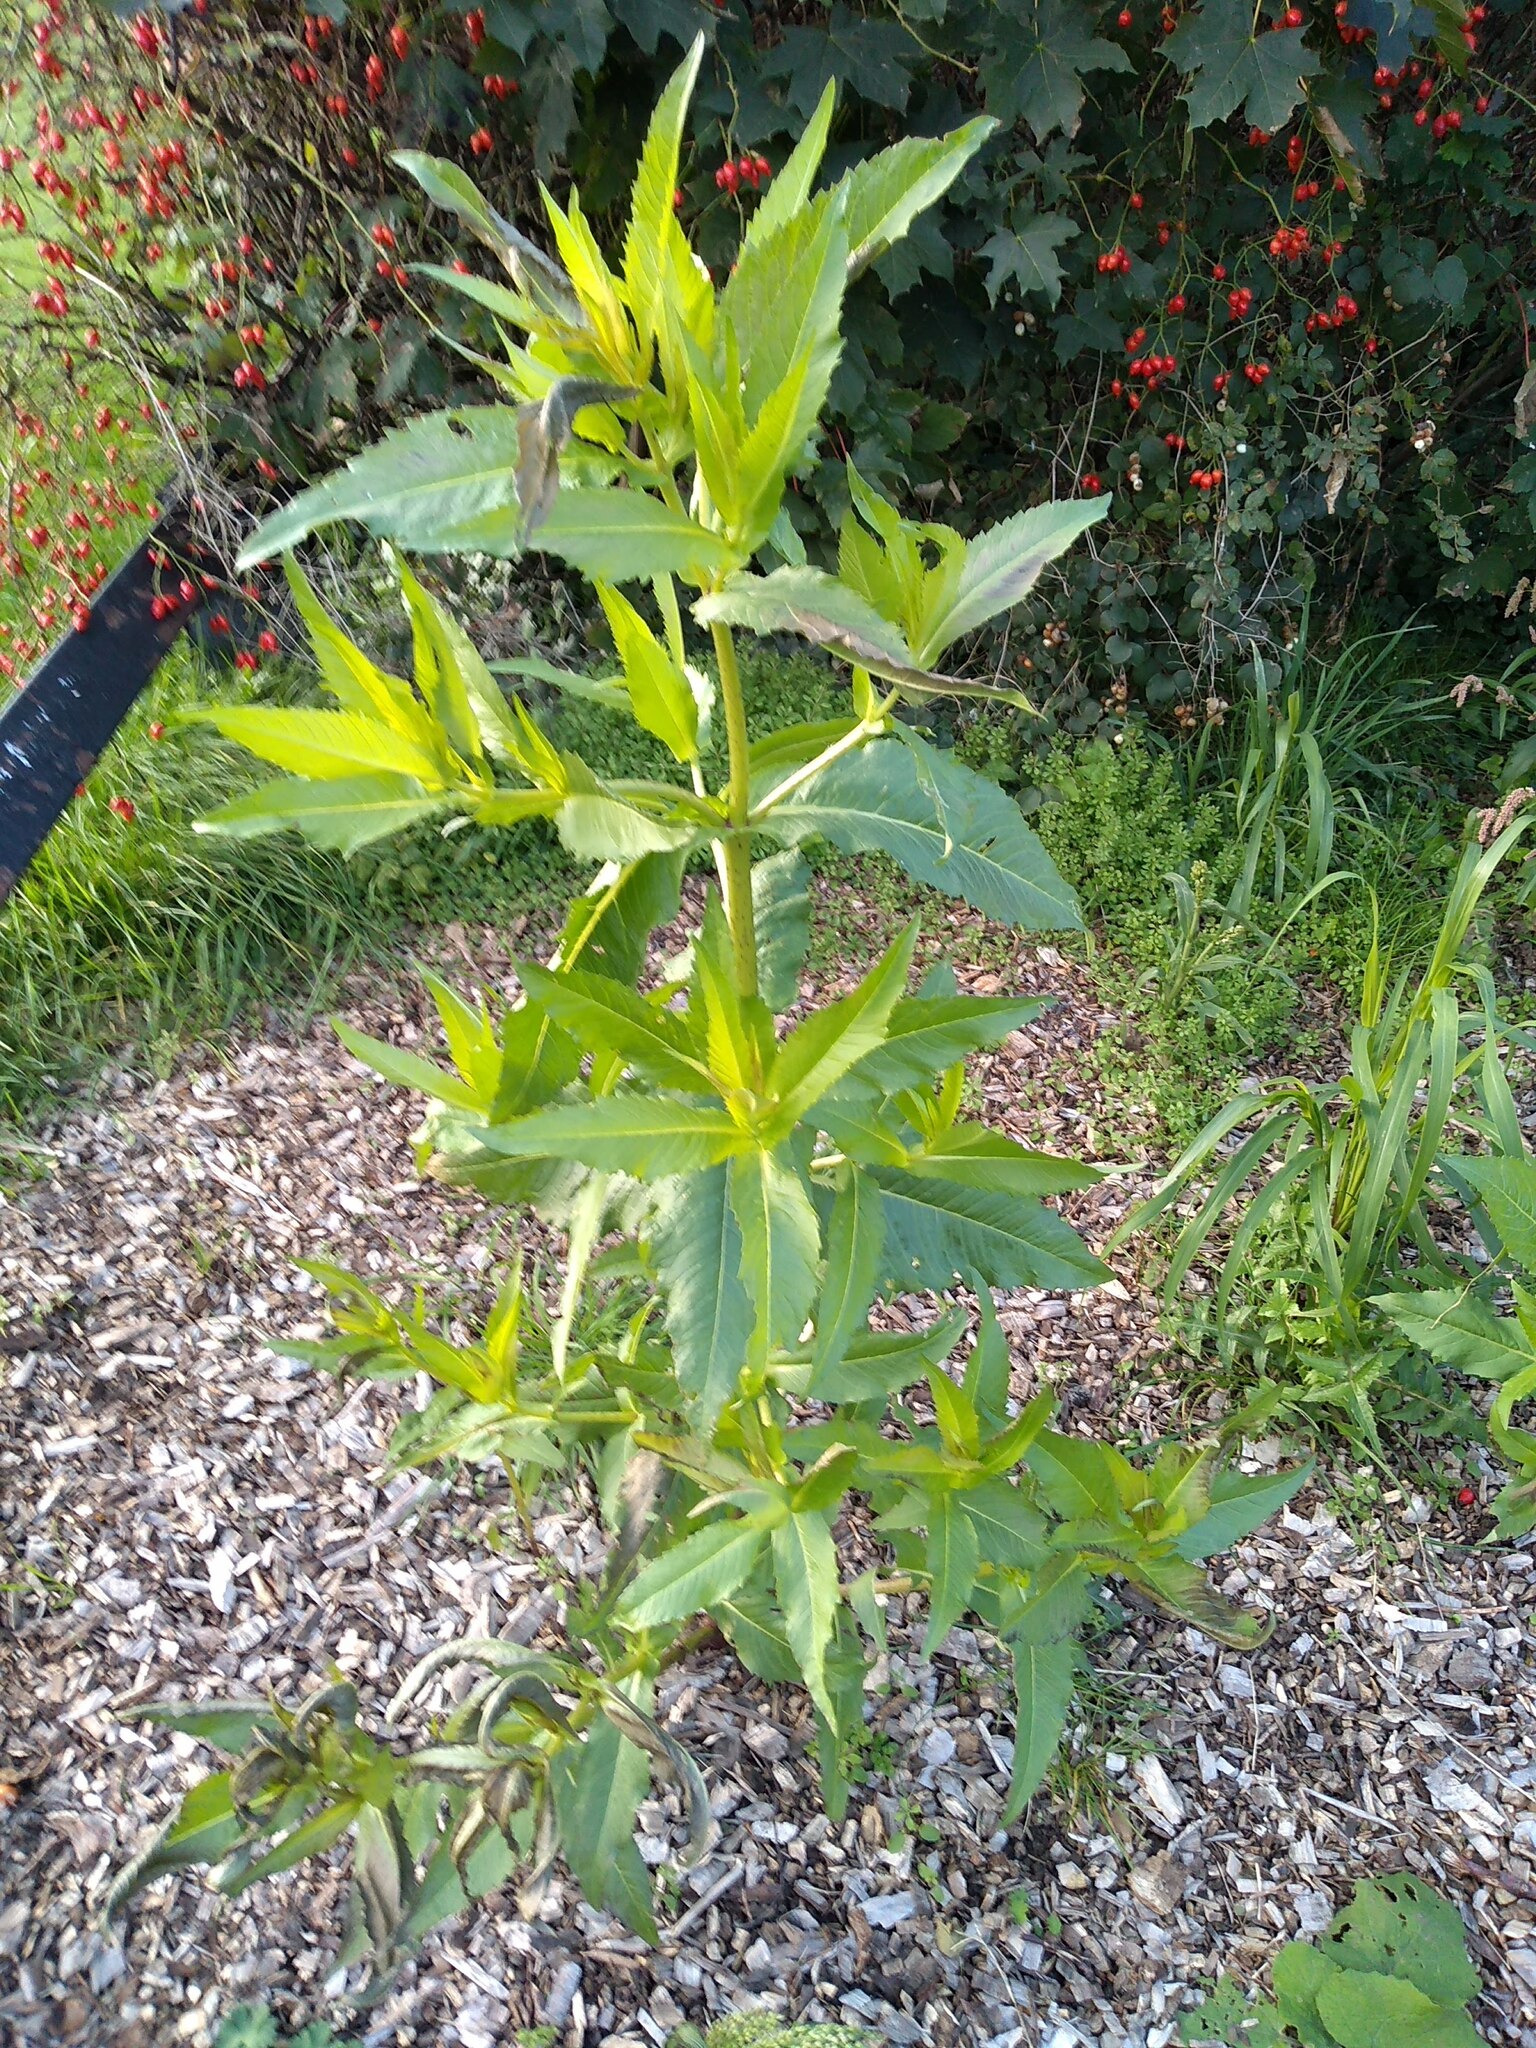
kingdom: Plantae
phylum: Tracheophyta
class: Magnoliopsida
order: Asterales
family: Asteraceae
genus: Guizotia
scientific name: Guizotia abyssinica
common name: Niger
